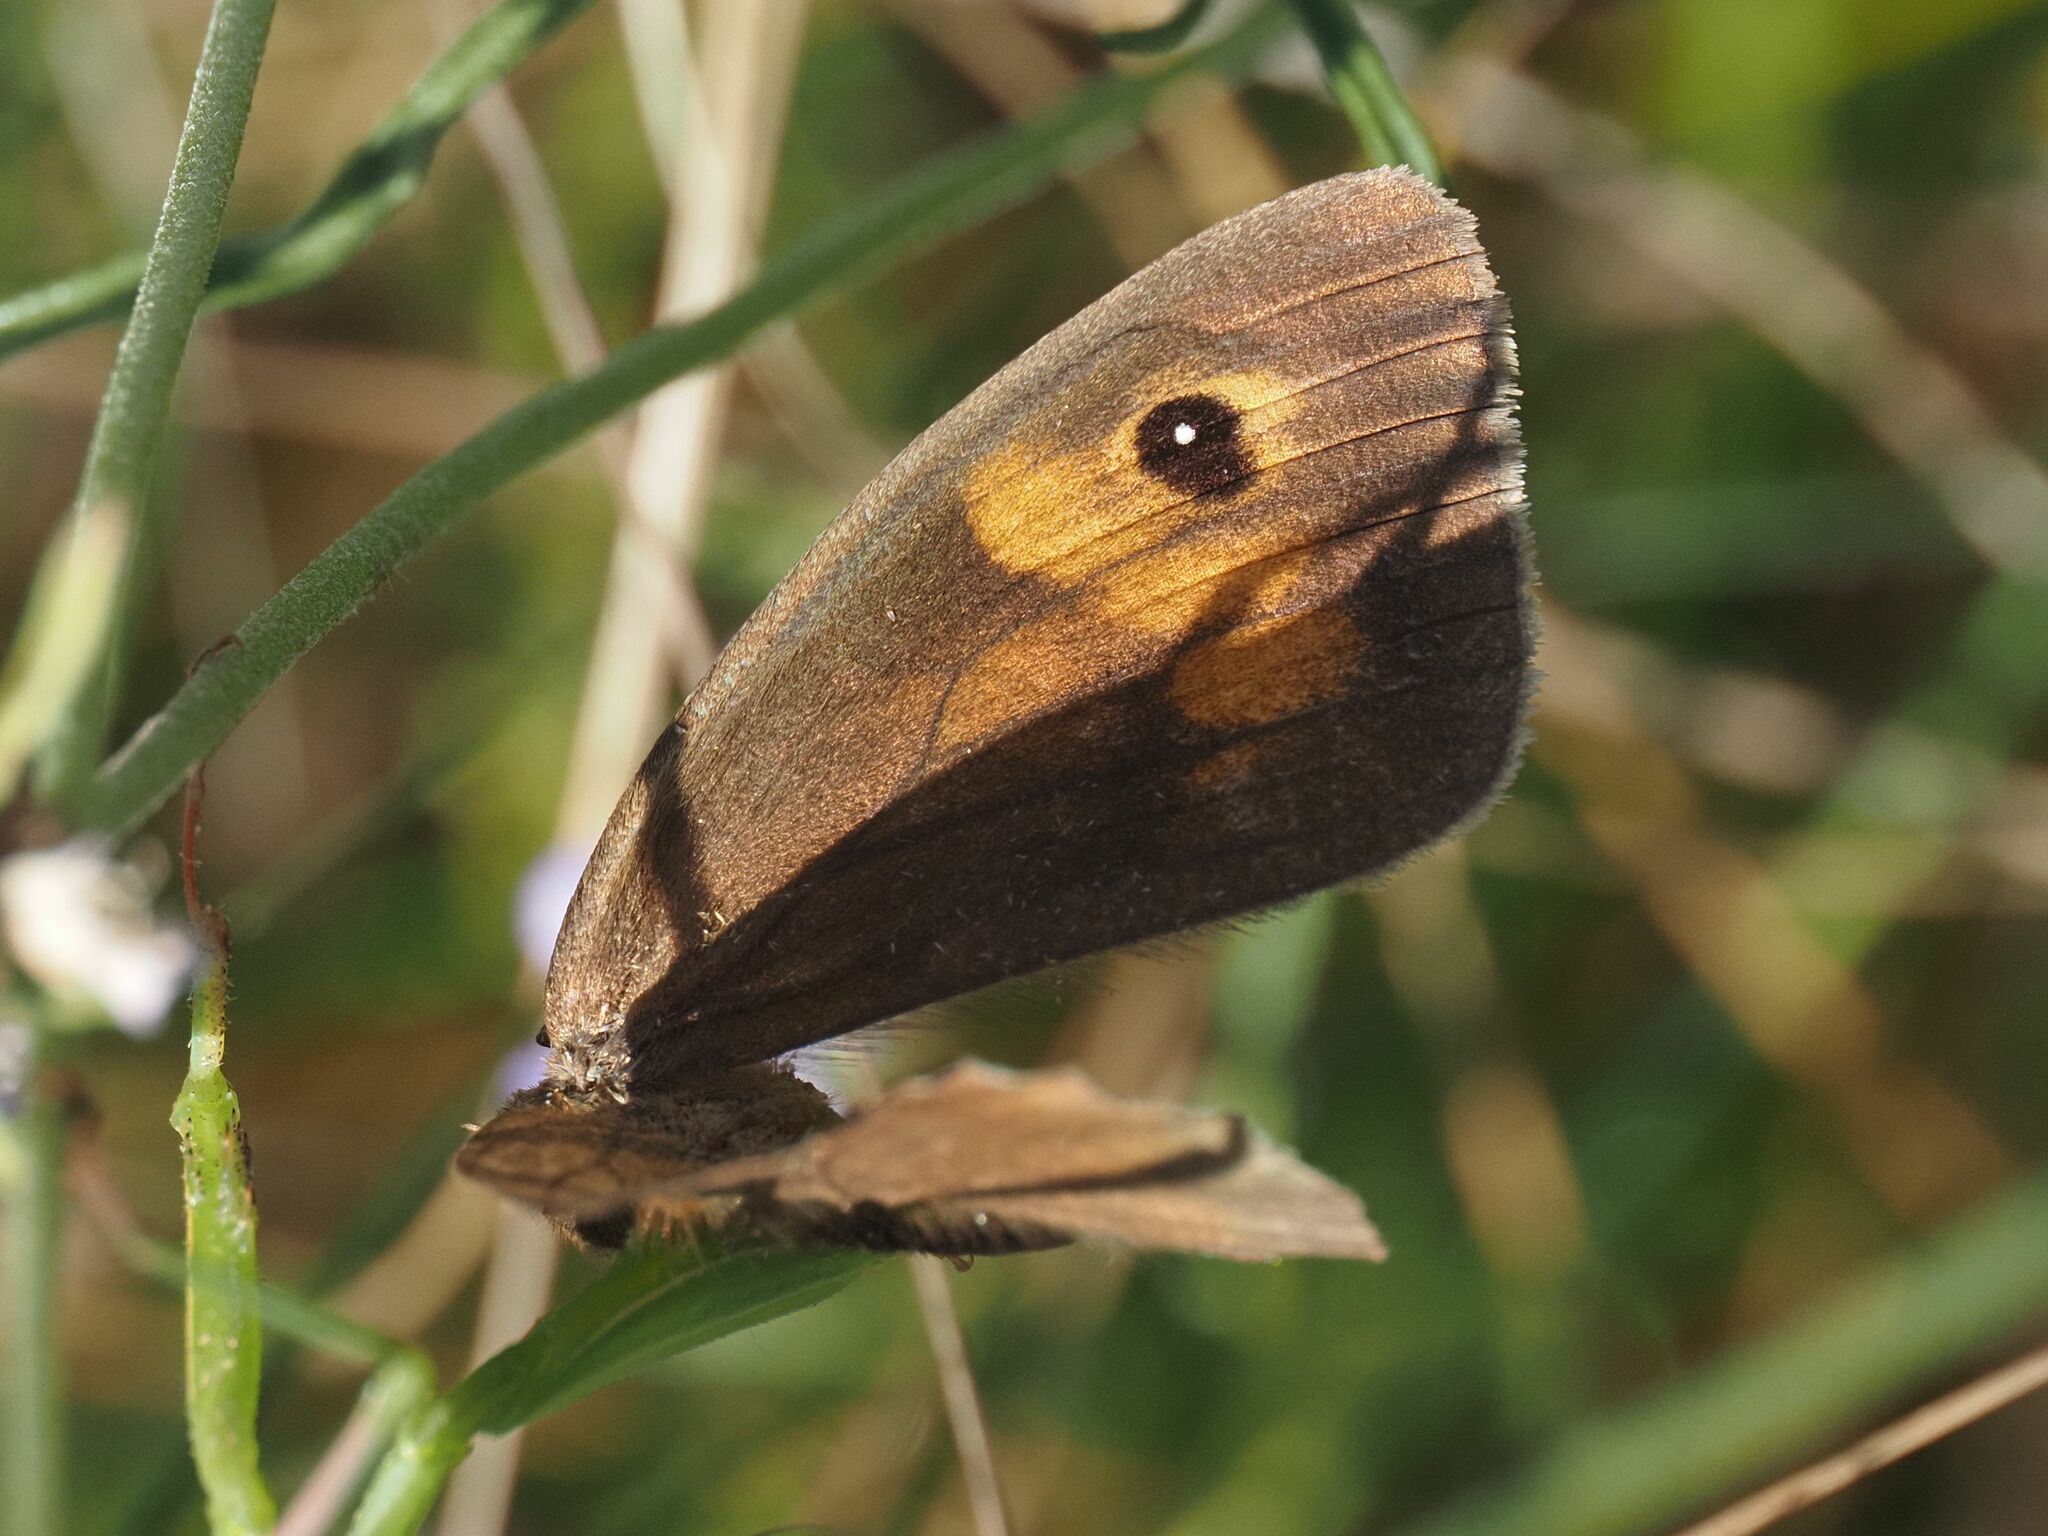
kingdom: Animalia
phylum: Arthropoda
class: Insecta
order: Lepidoptera
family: Nymphalidae
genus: Maniola
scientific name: Maniola jurtina
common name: Meadow brown
